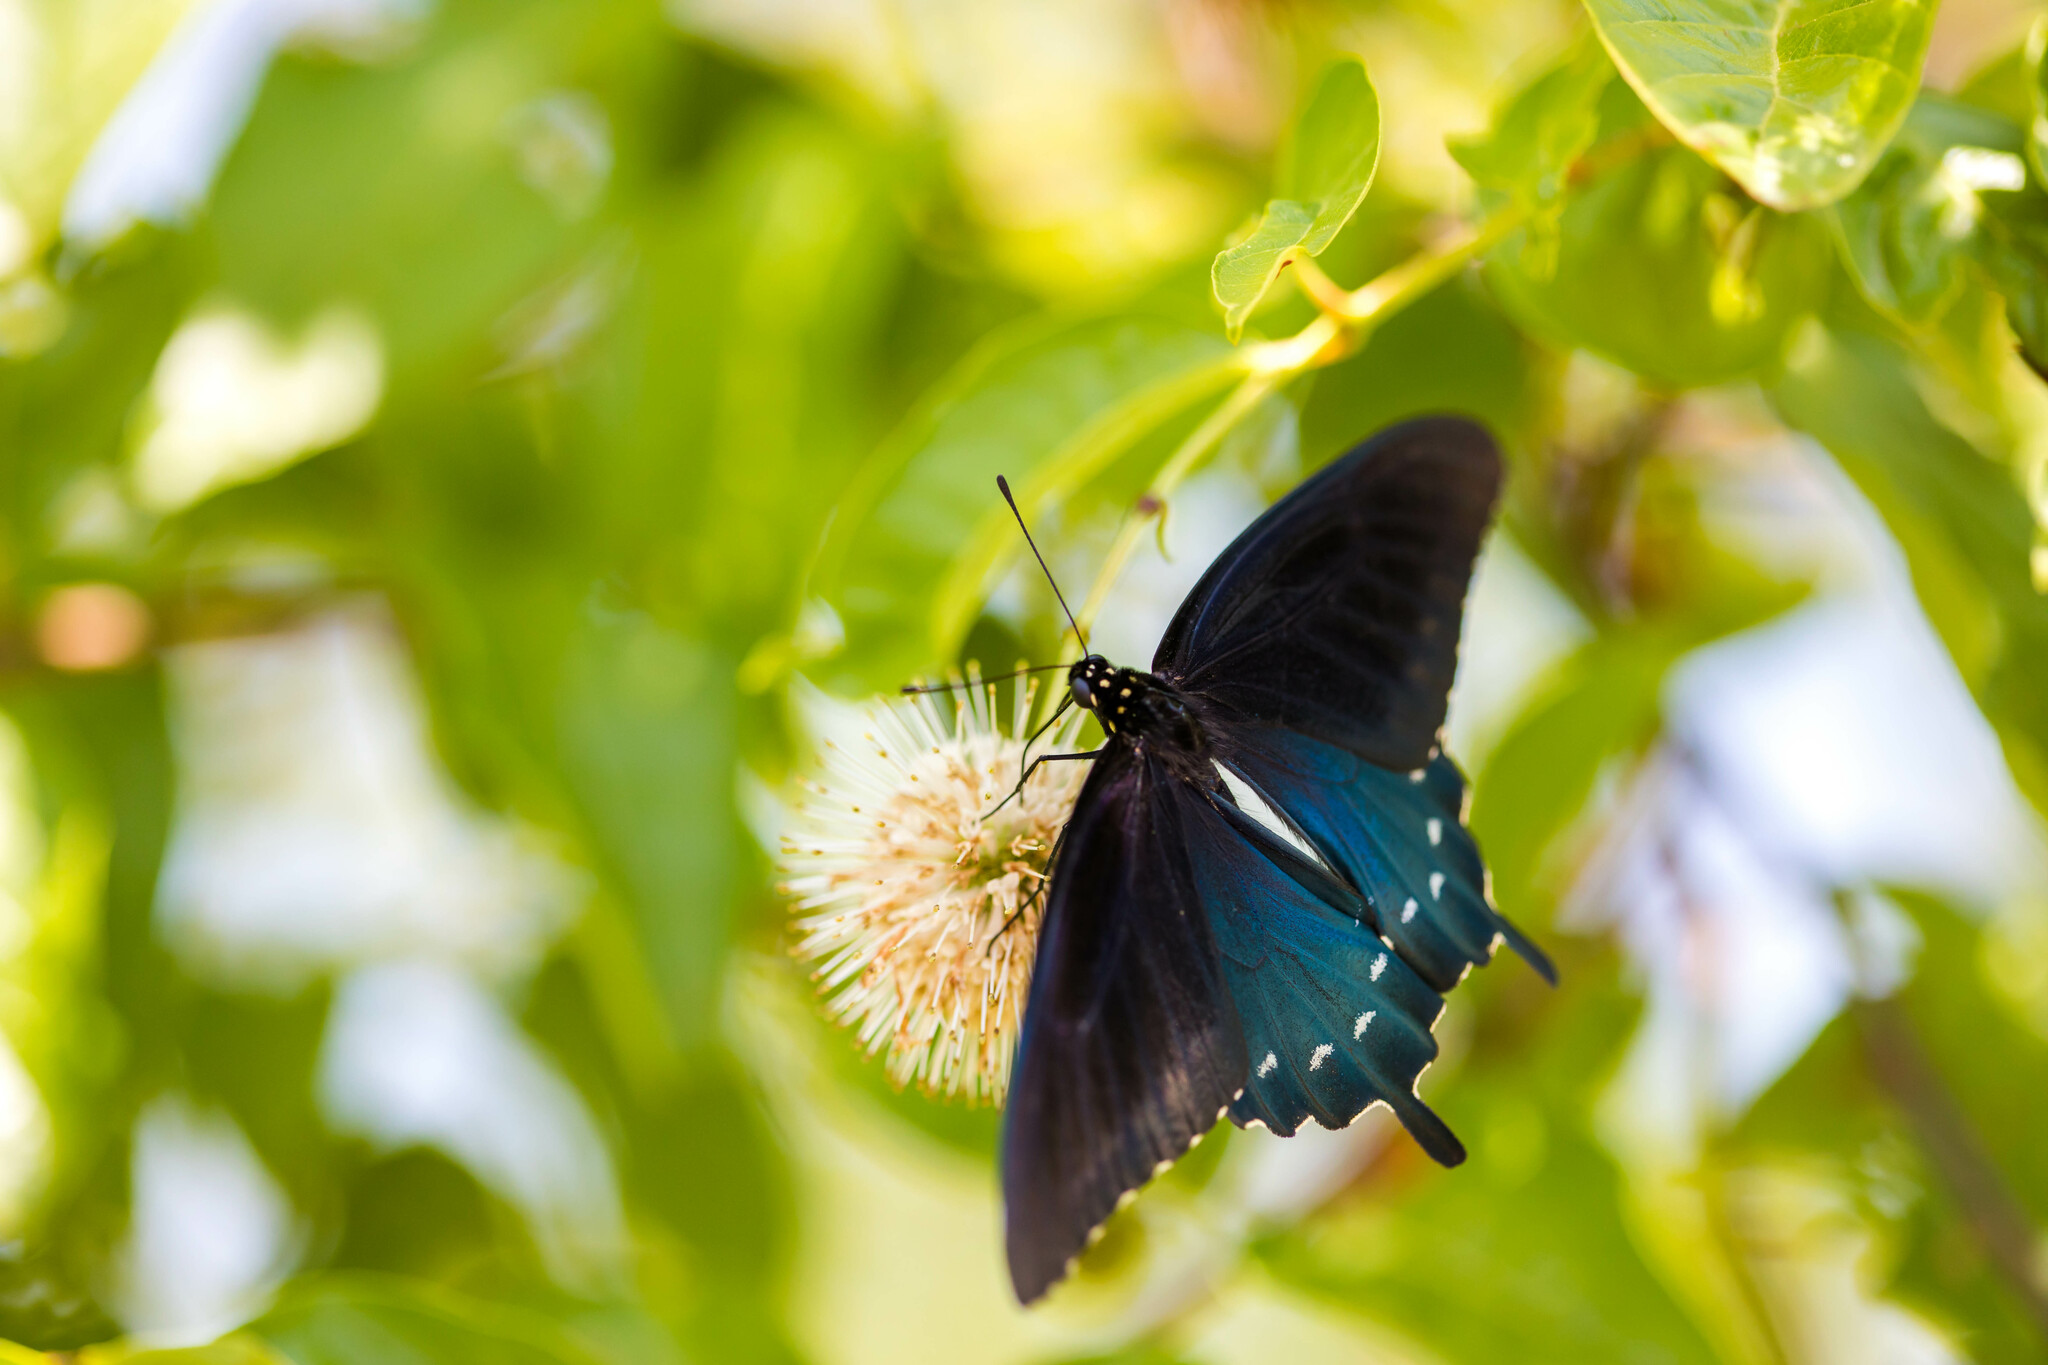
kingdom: Animalia
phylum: Arthropoda
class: Insecta
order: Lepidoptera
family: Papilionidae
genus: Battus
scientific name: Battus philenor
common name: Pipevine swallowtail
